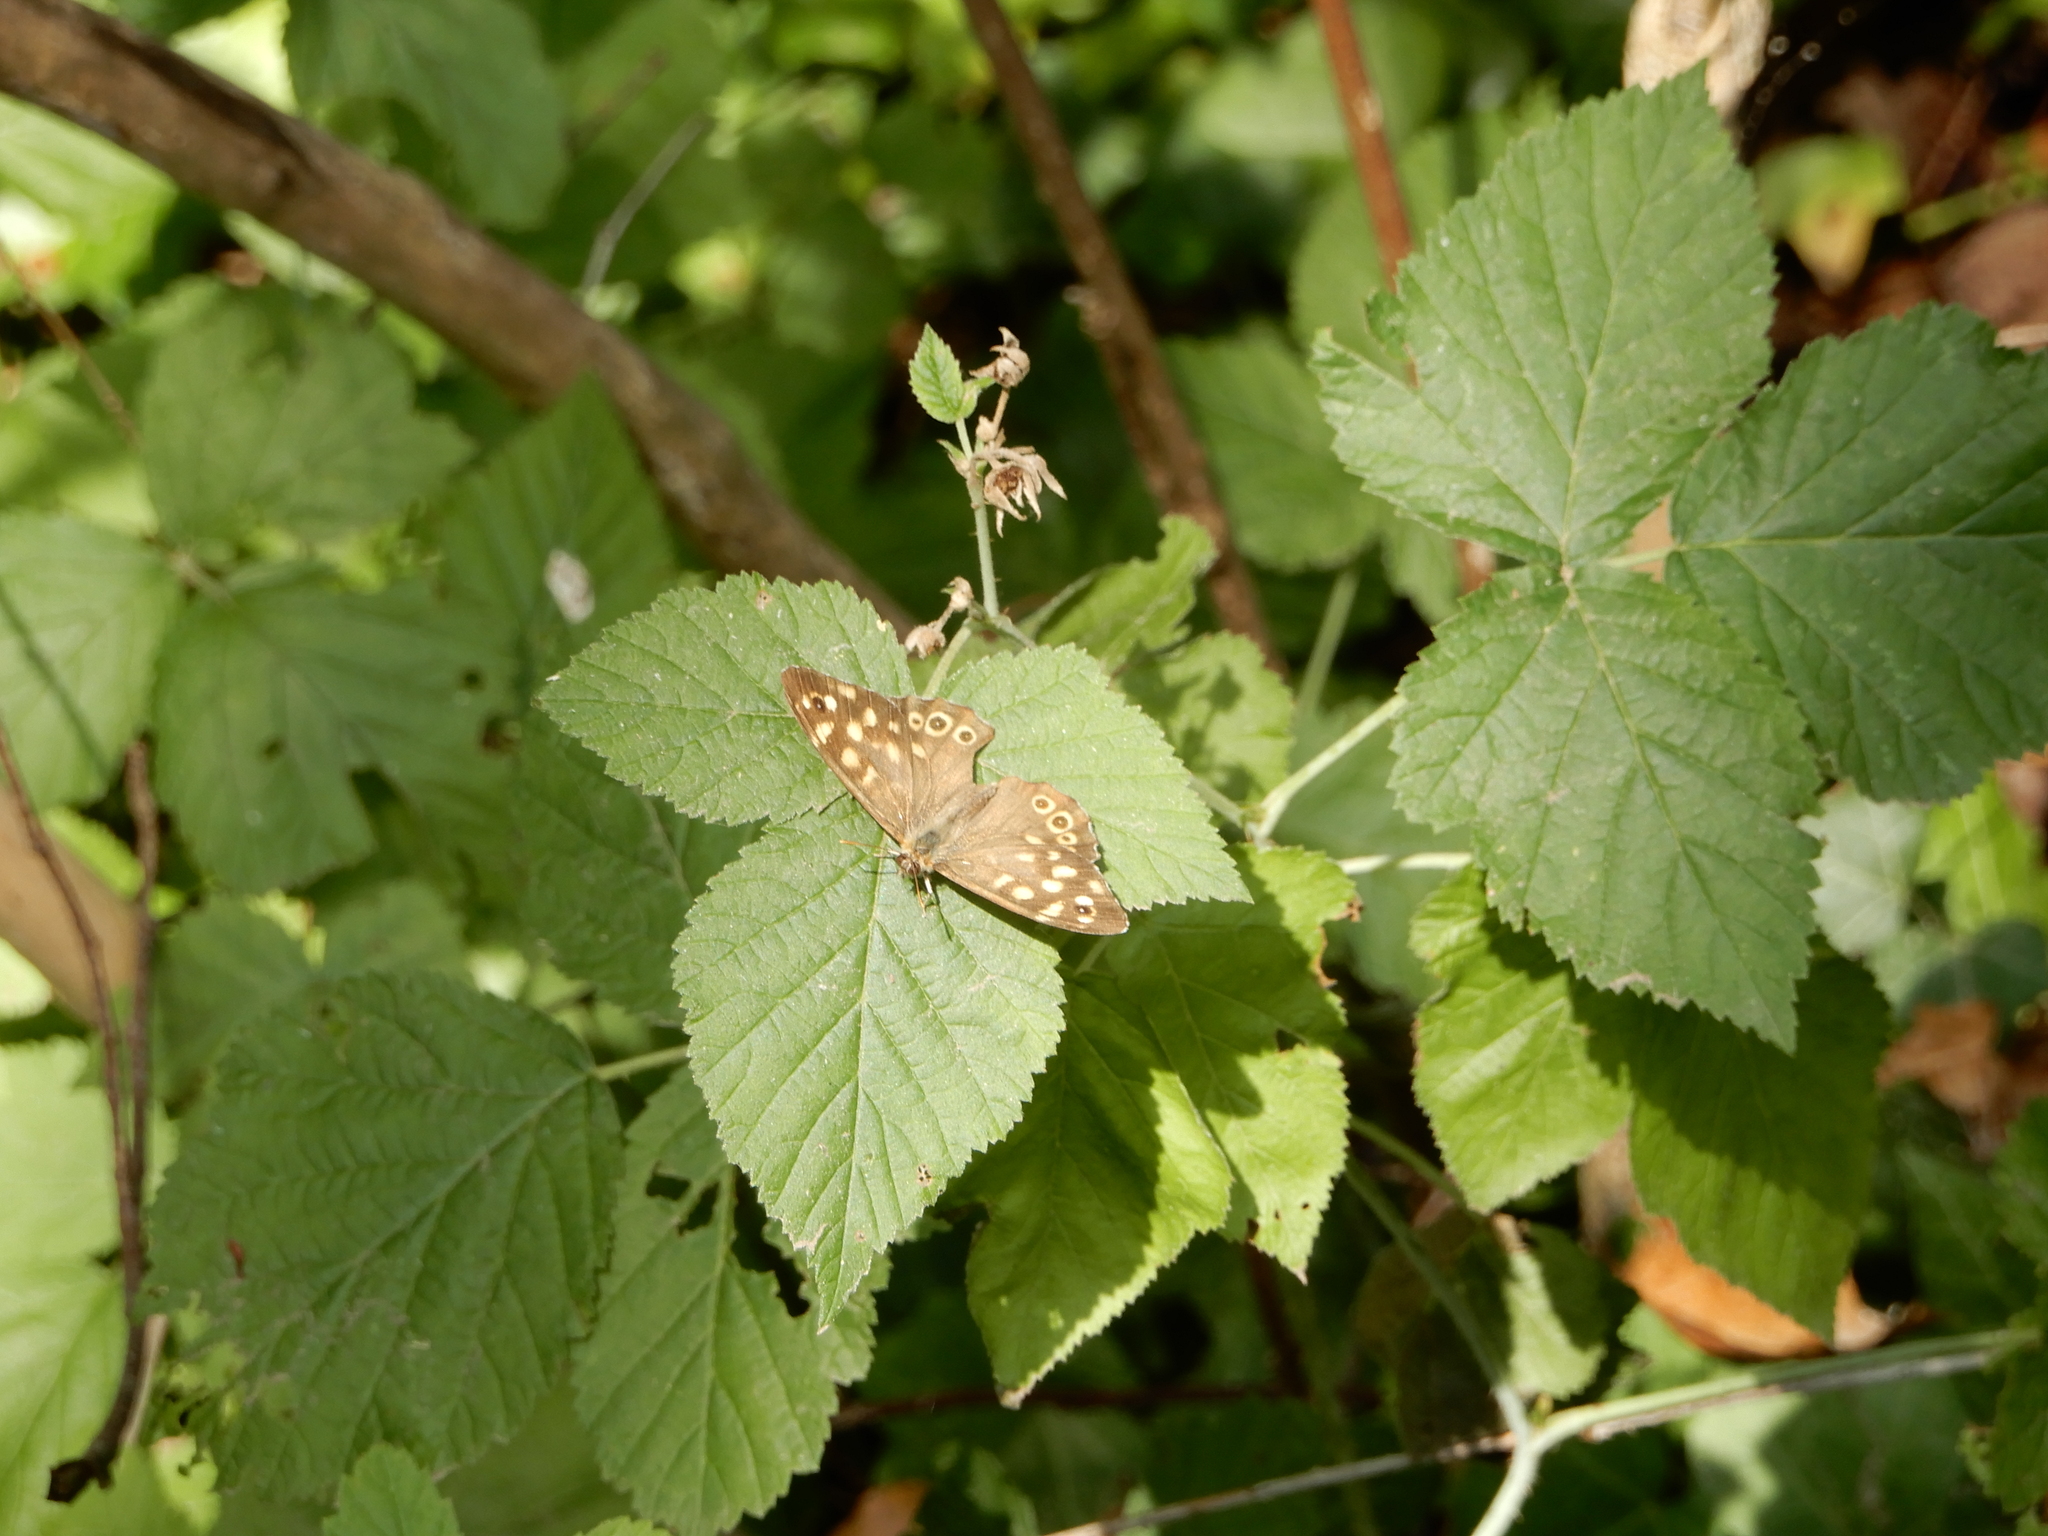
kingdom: Animalia
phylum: Arthropoda
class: Insecta
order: Lepidoptera
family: Nymphalidae
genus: Pararge
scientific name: Pararge aegeria
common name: Speckled wood
